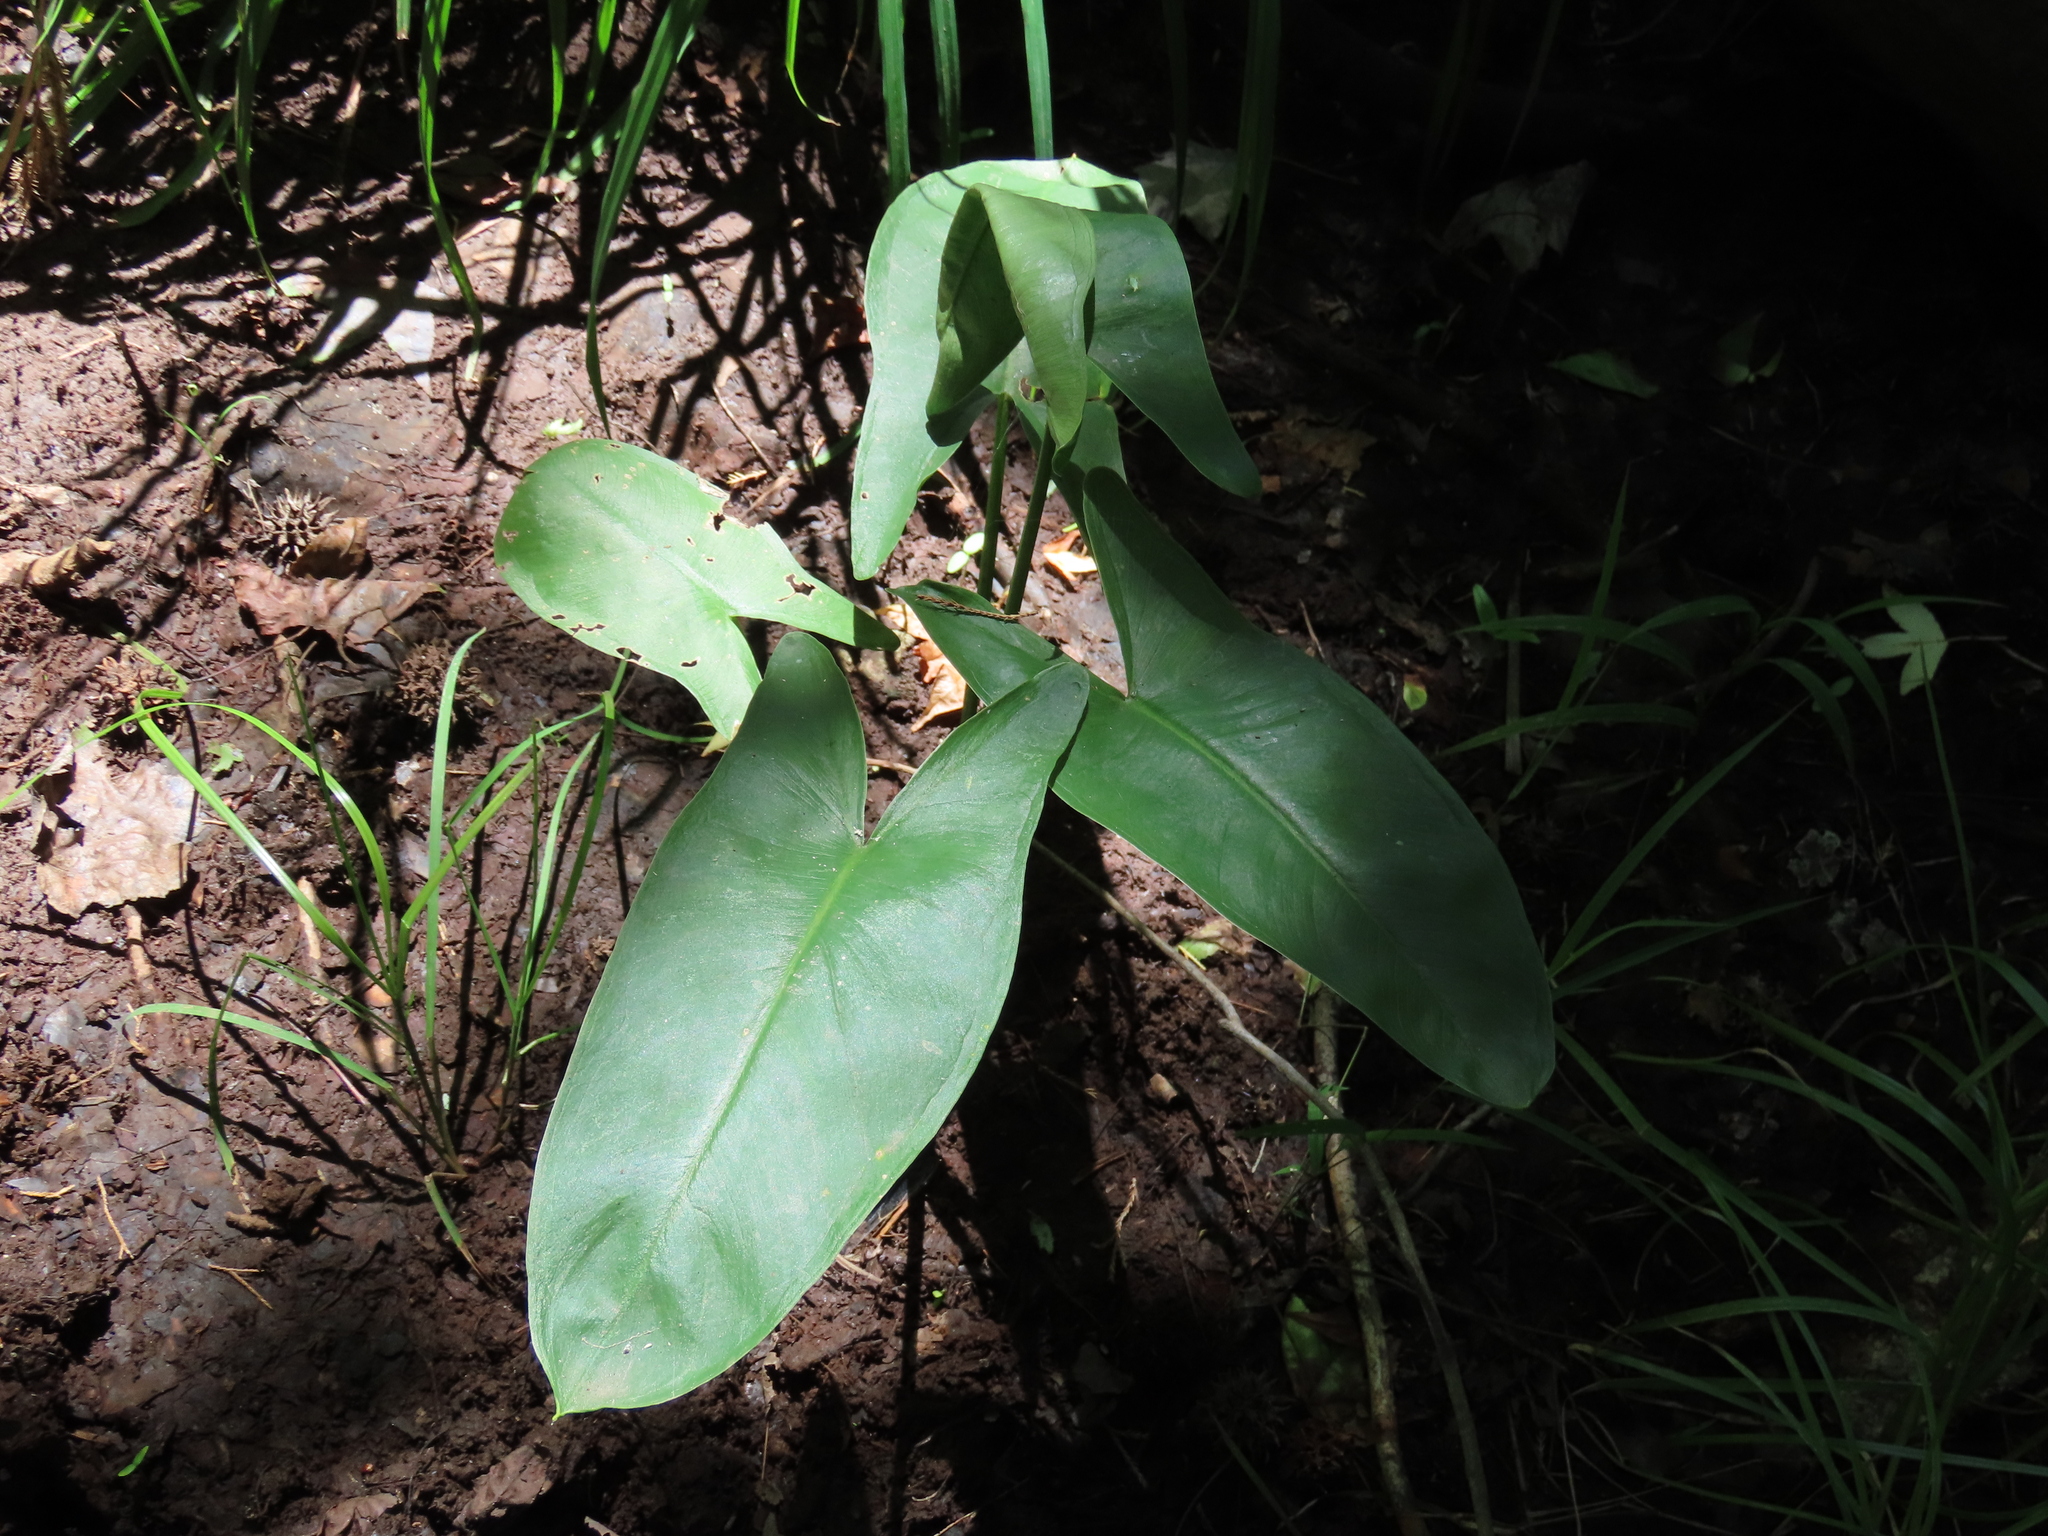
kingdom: Plantae
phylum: Tracheophyta
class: Liliopsida
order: Alismatales
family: Araceae
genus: Peltandra
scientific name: Peltandra virginica
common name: Arrow arum
